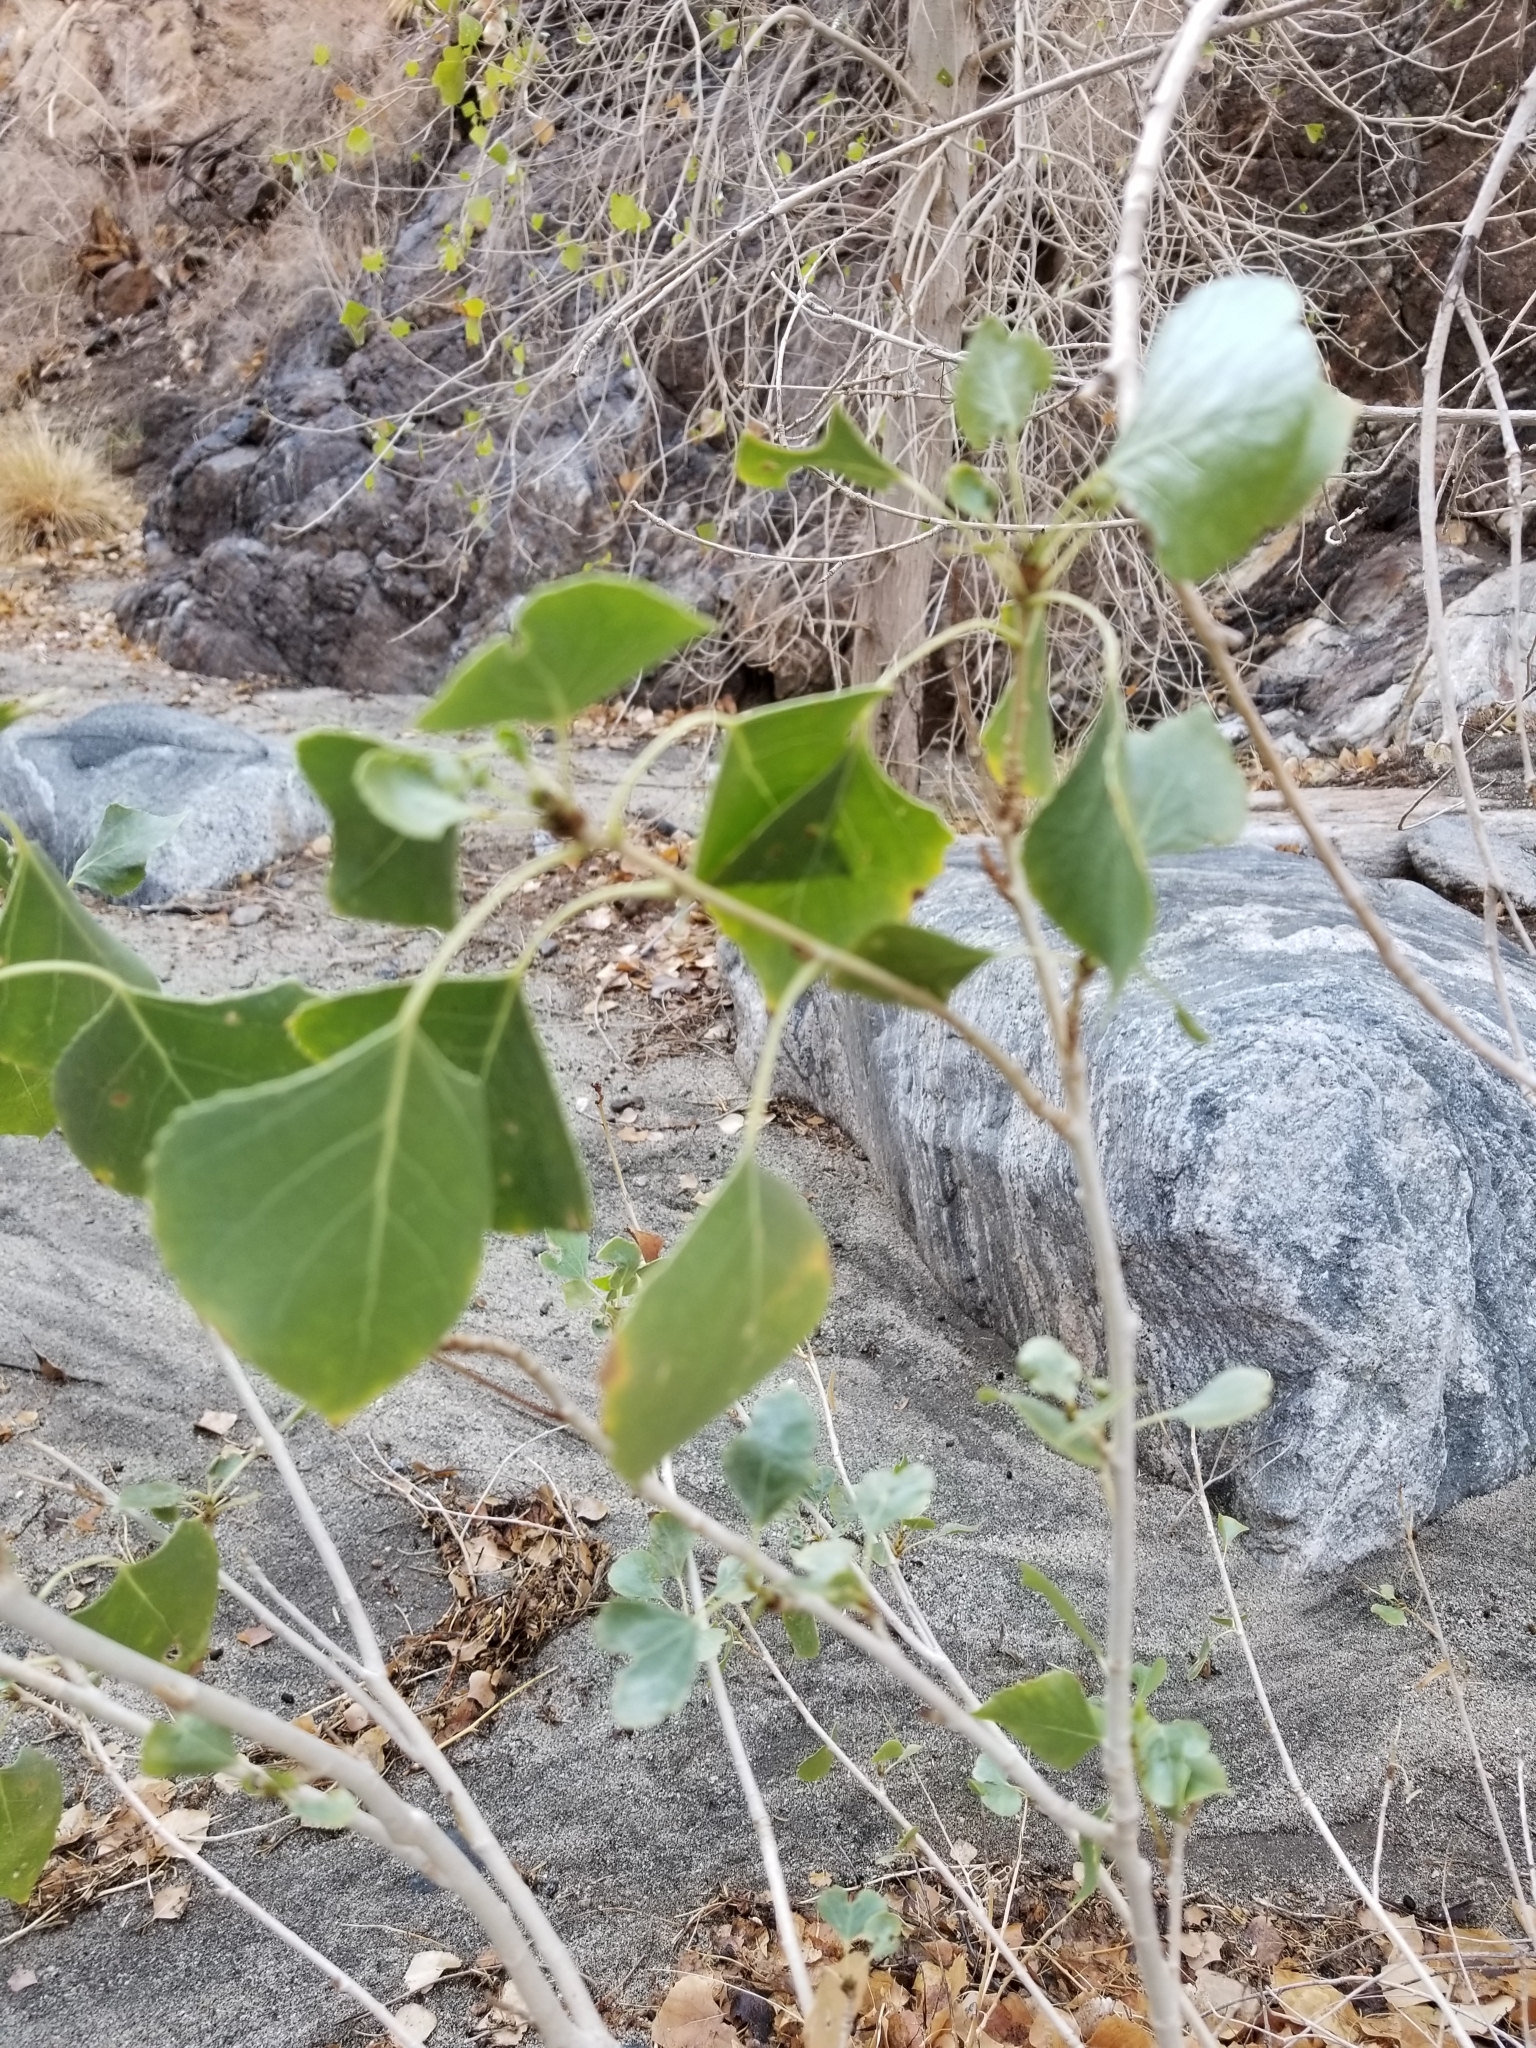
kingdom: Plantae
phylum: Tracheophyta
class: Magnoliopsida
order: Malpighiales
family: Salicaceae
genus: Populus
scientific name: Populus fremontii
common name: Fremont's cottonwood
